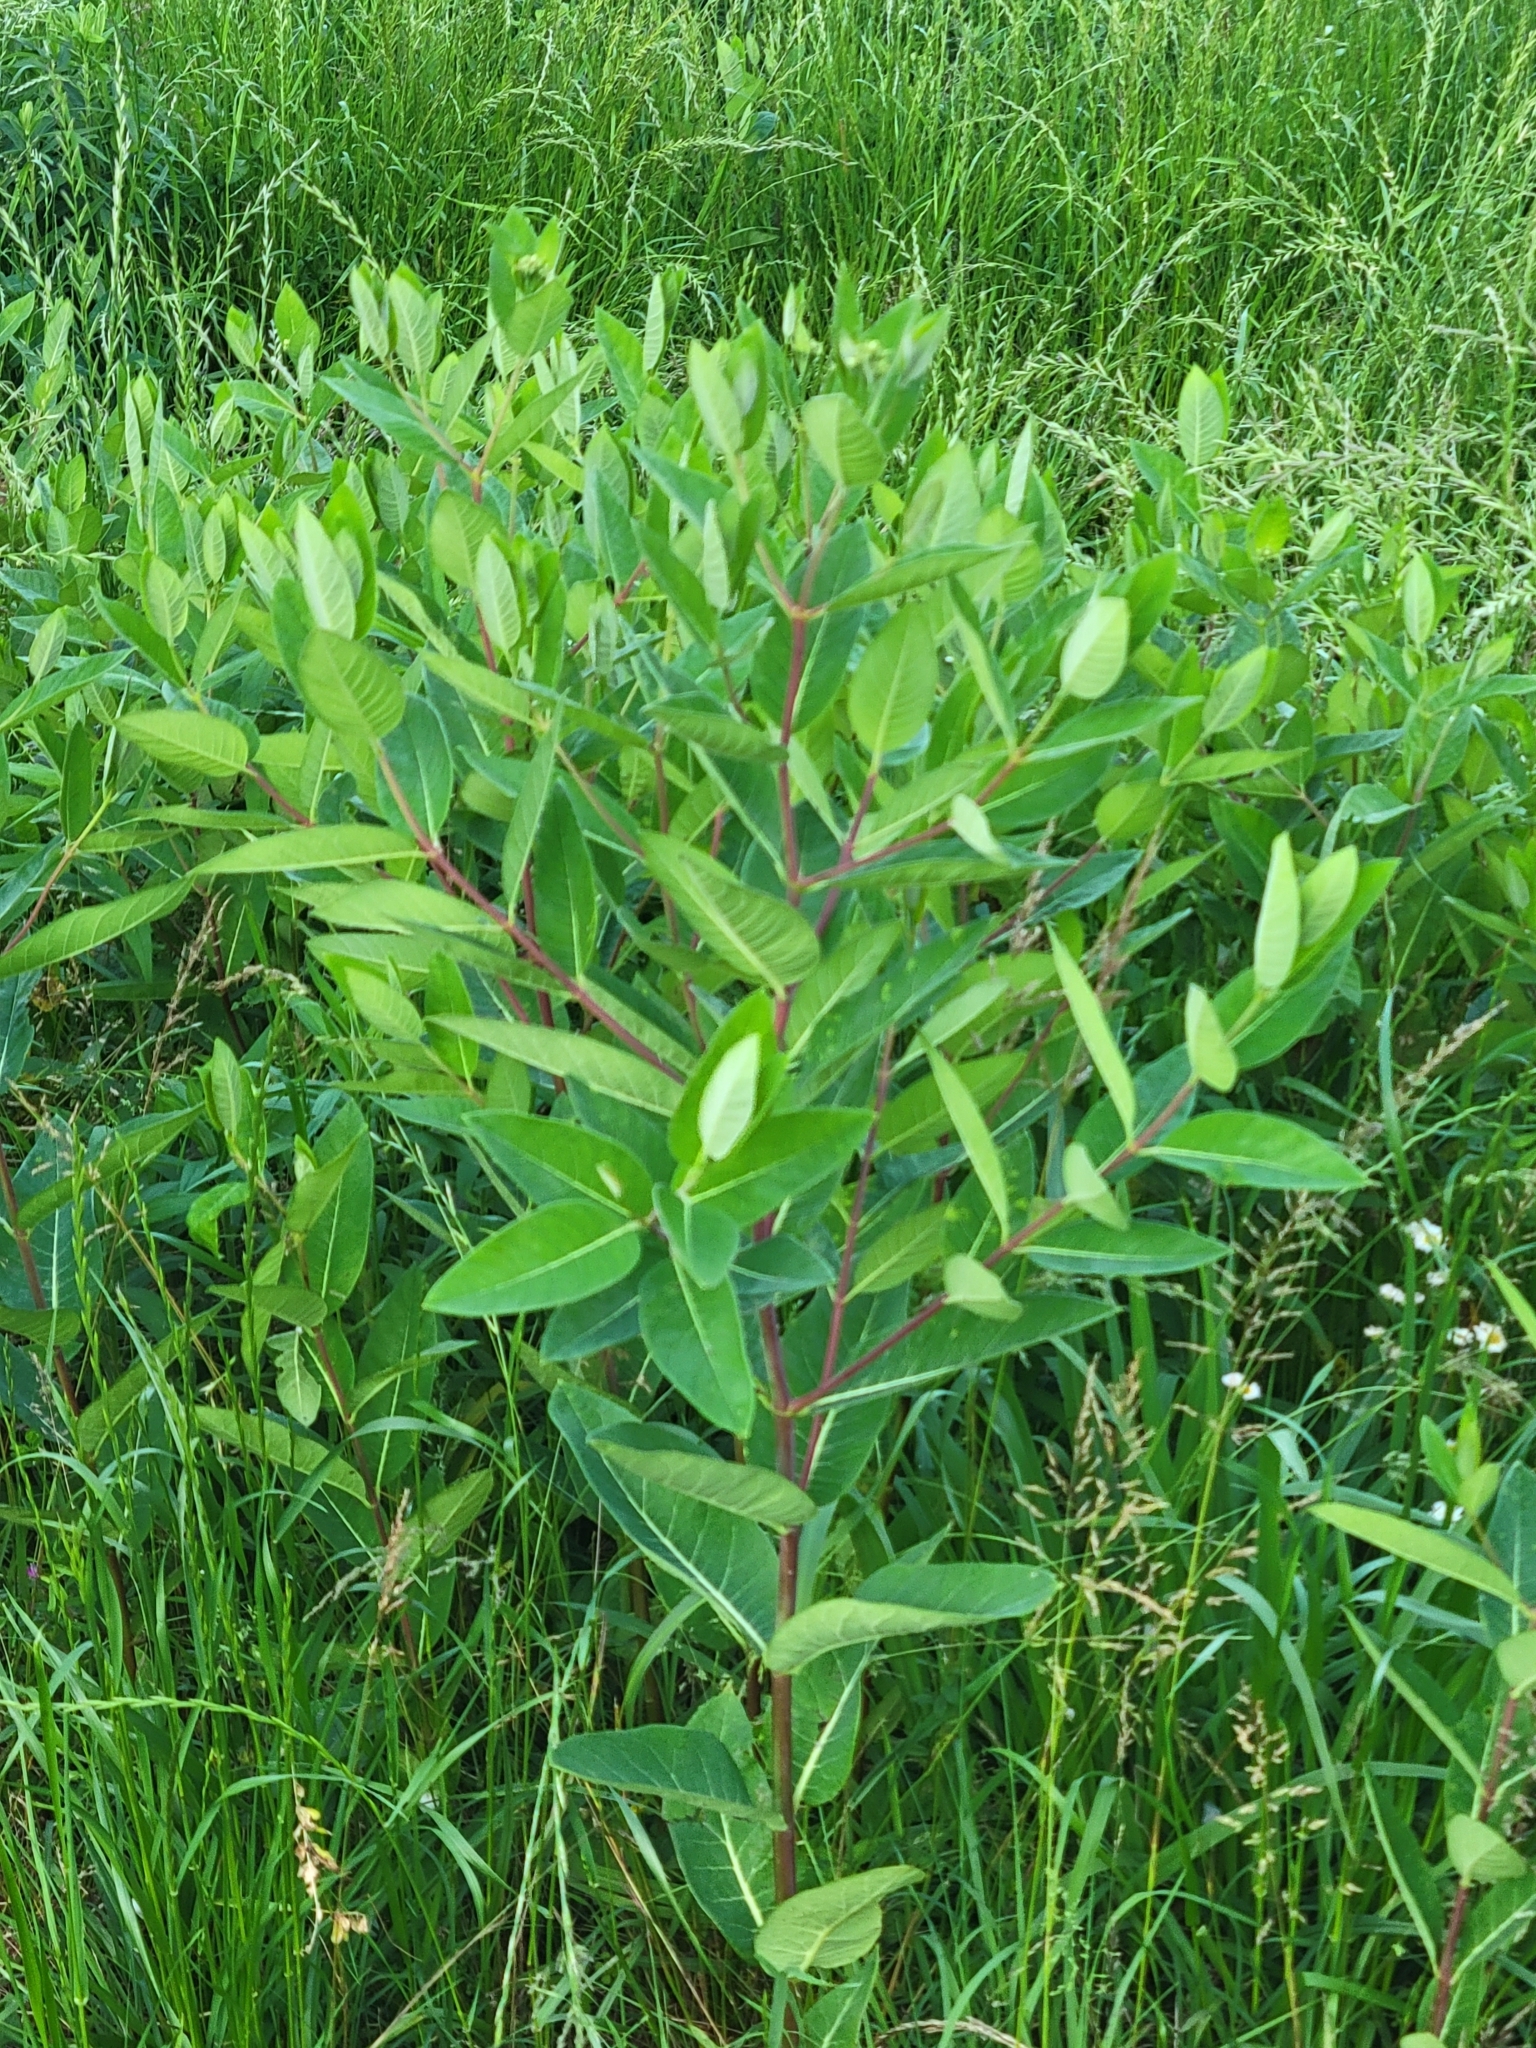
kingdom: Plantae
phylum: Tracheophyta
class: Magnoliopsida
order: Gentianales
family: Apocynaceae
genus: Apocynum
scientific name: Apocynum cannabinum
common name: Hemp dogbane
